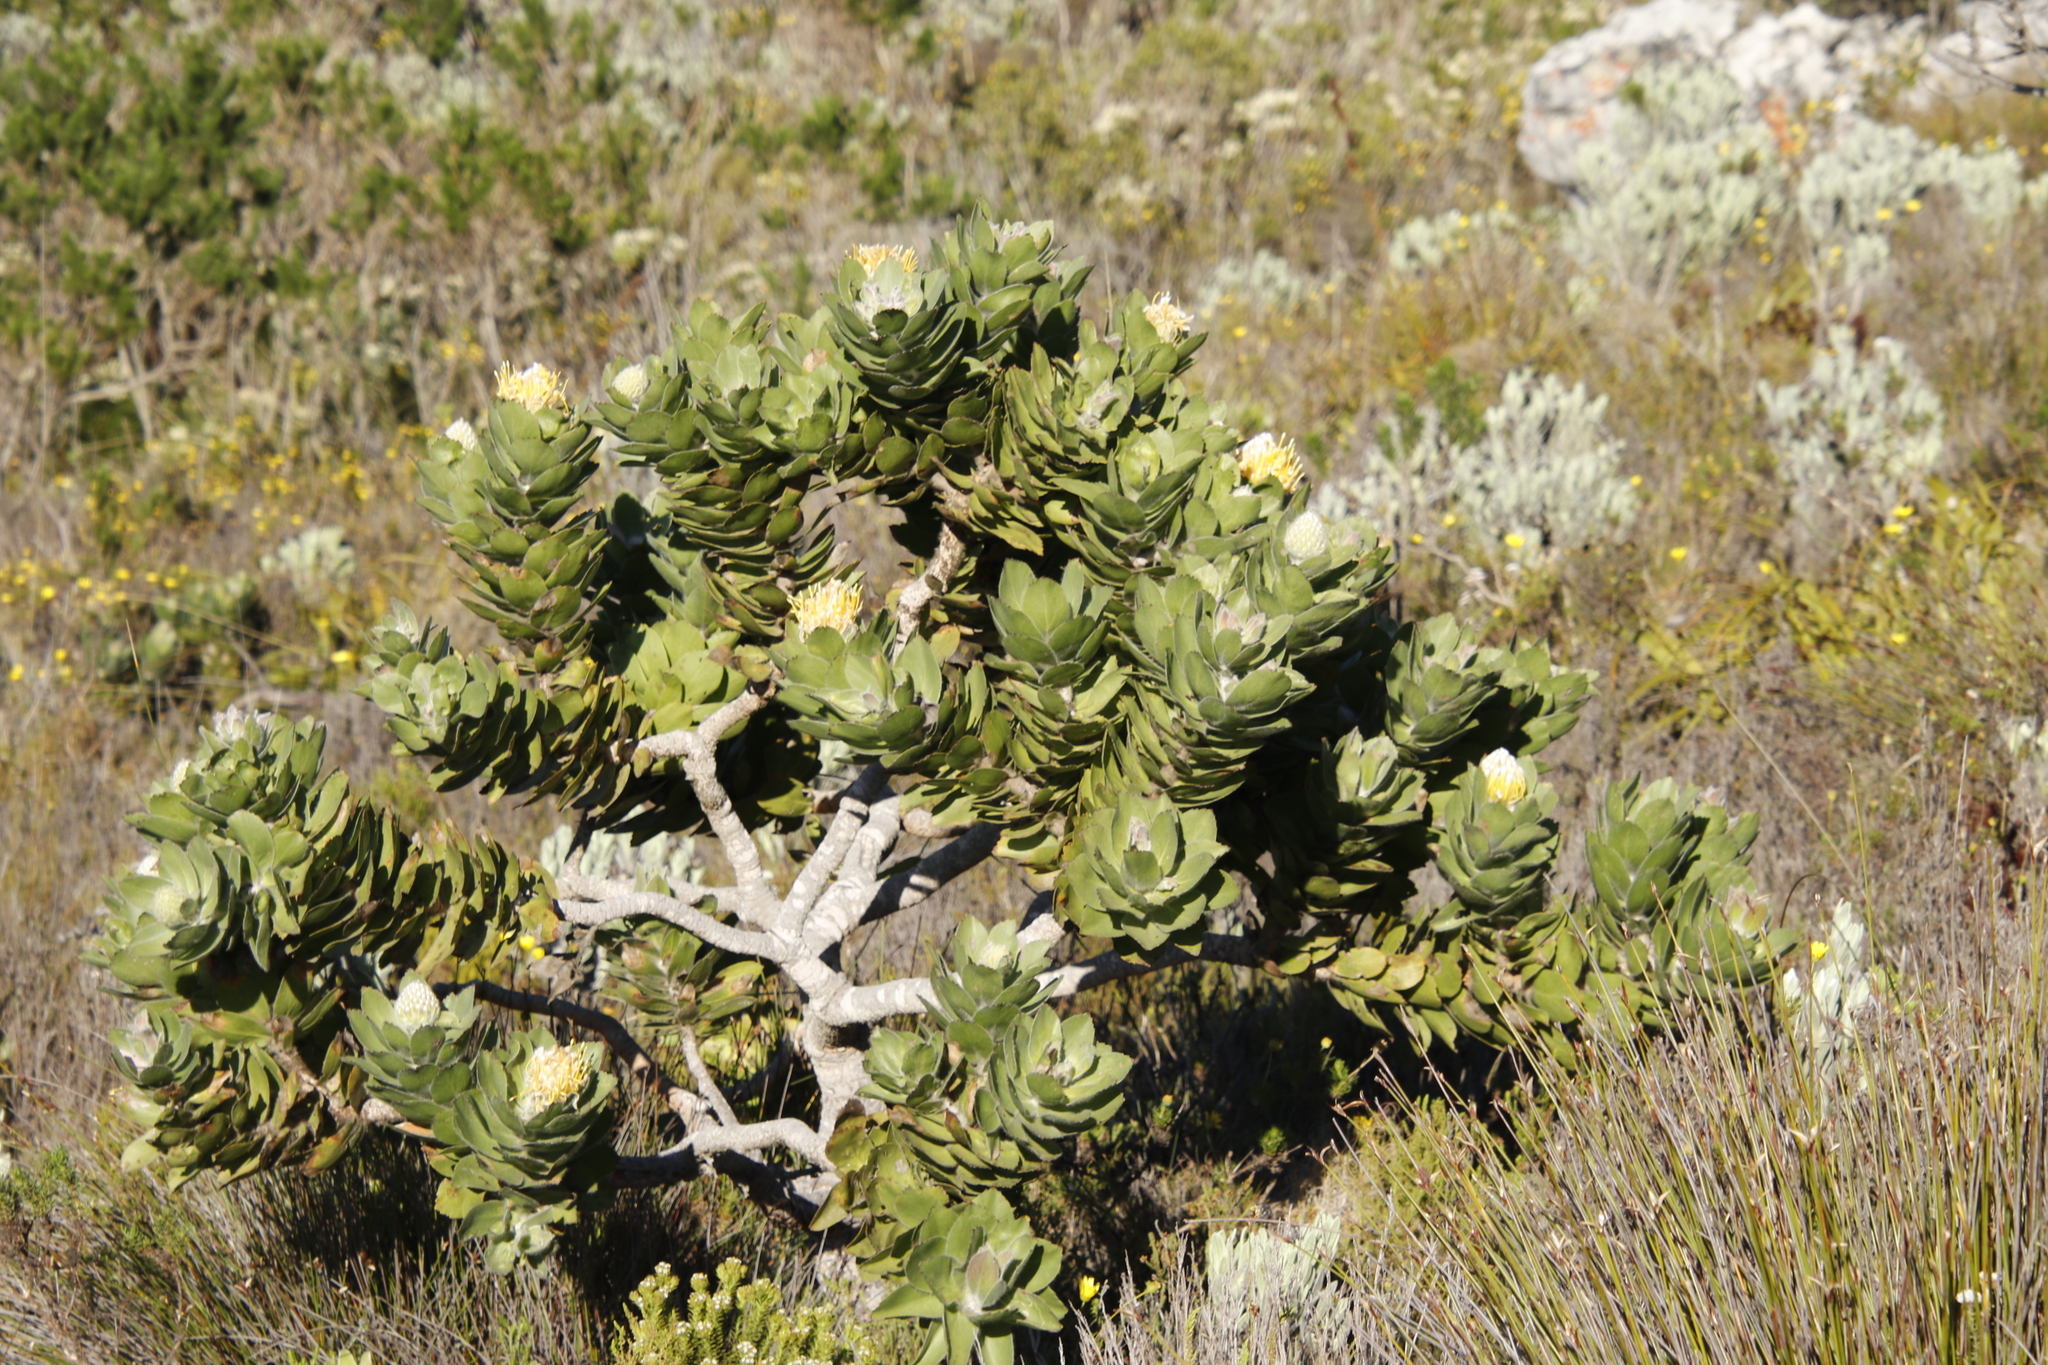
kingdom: Plantae
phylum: Tracheophyta
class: Magnoliopsida
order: Proteales
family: Proteaceae
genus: Leucospermum
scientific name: Leucospermum conocarpodendron
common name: Tree pincushion
